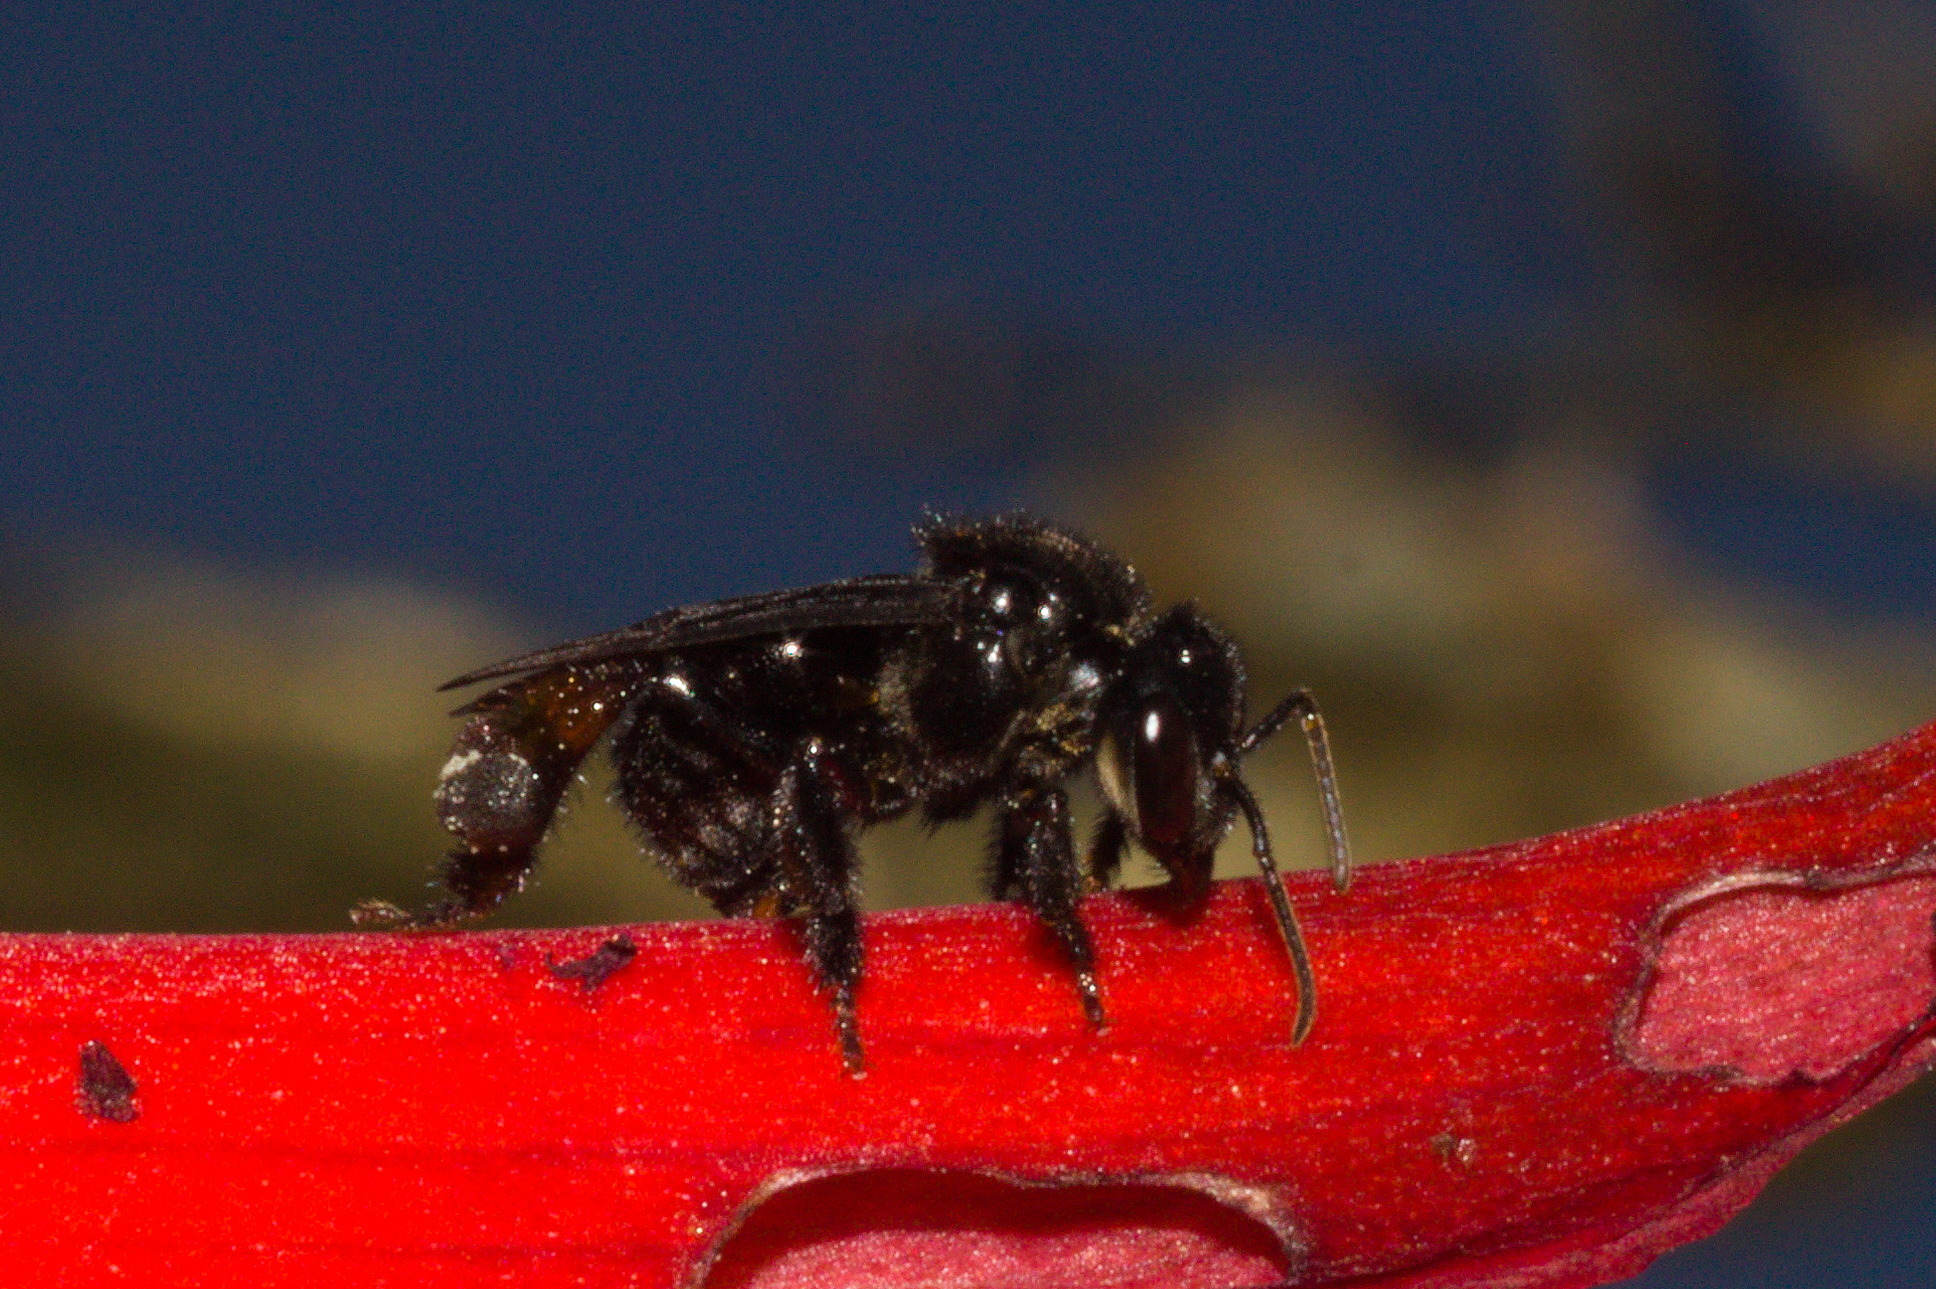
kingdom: Animalia
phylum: Arthropoda
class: Insecta
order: Hymenoptera
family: Apidae
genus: Trigona
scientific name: Trigona spinipes
